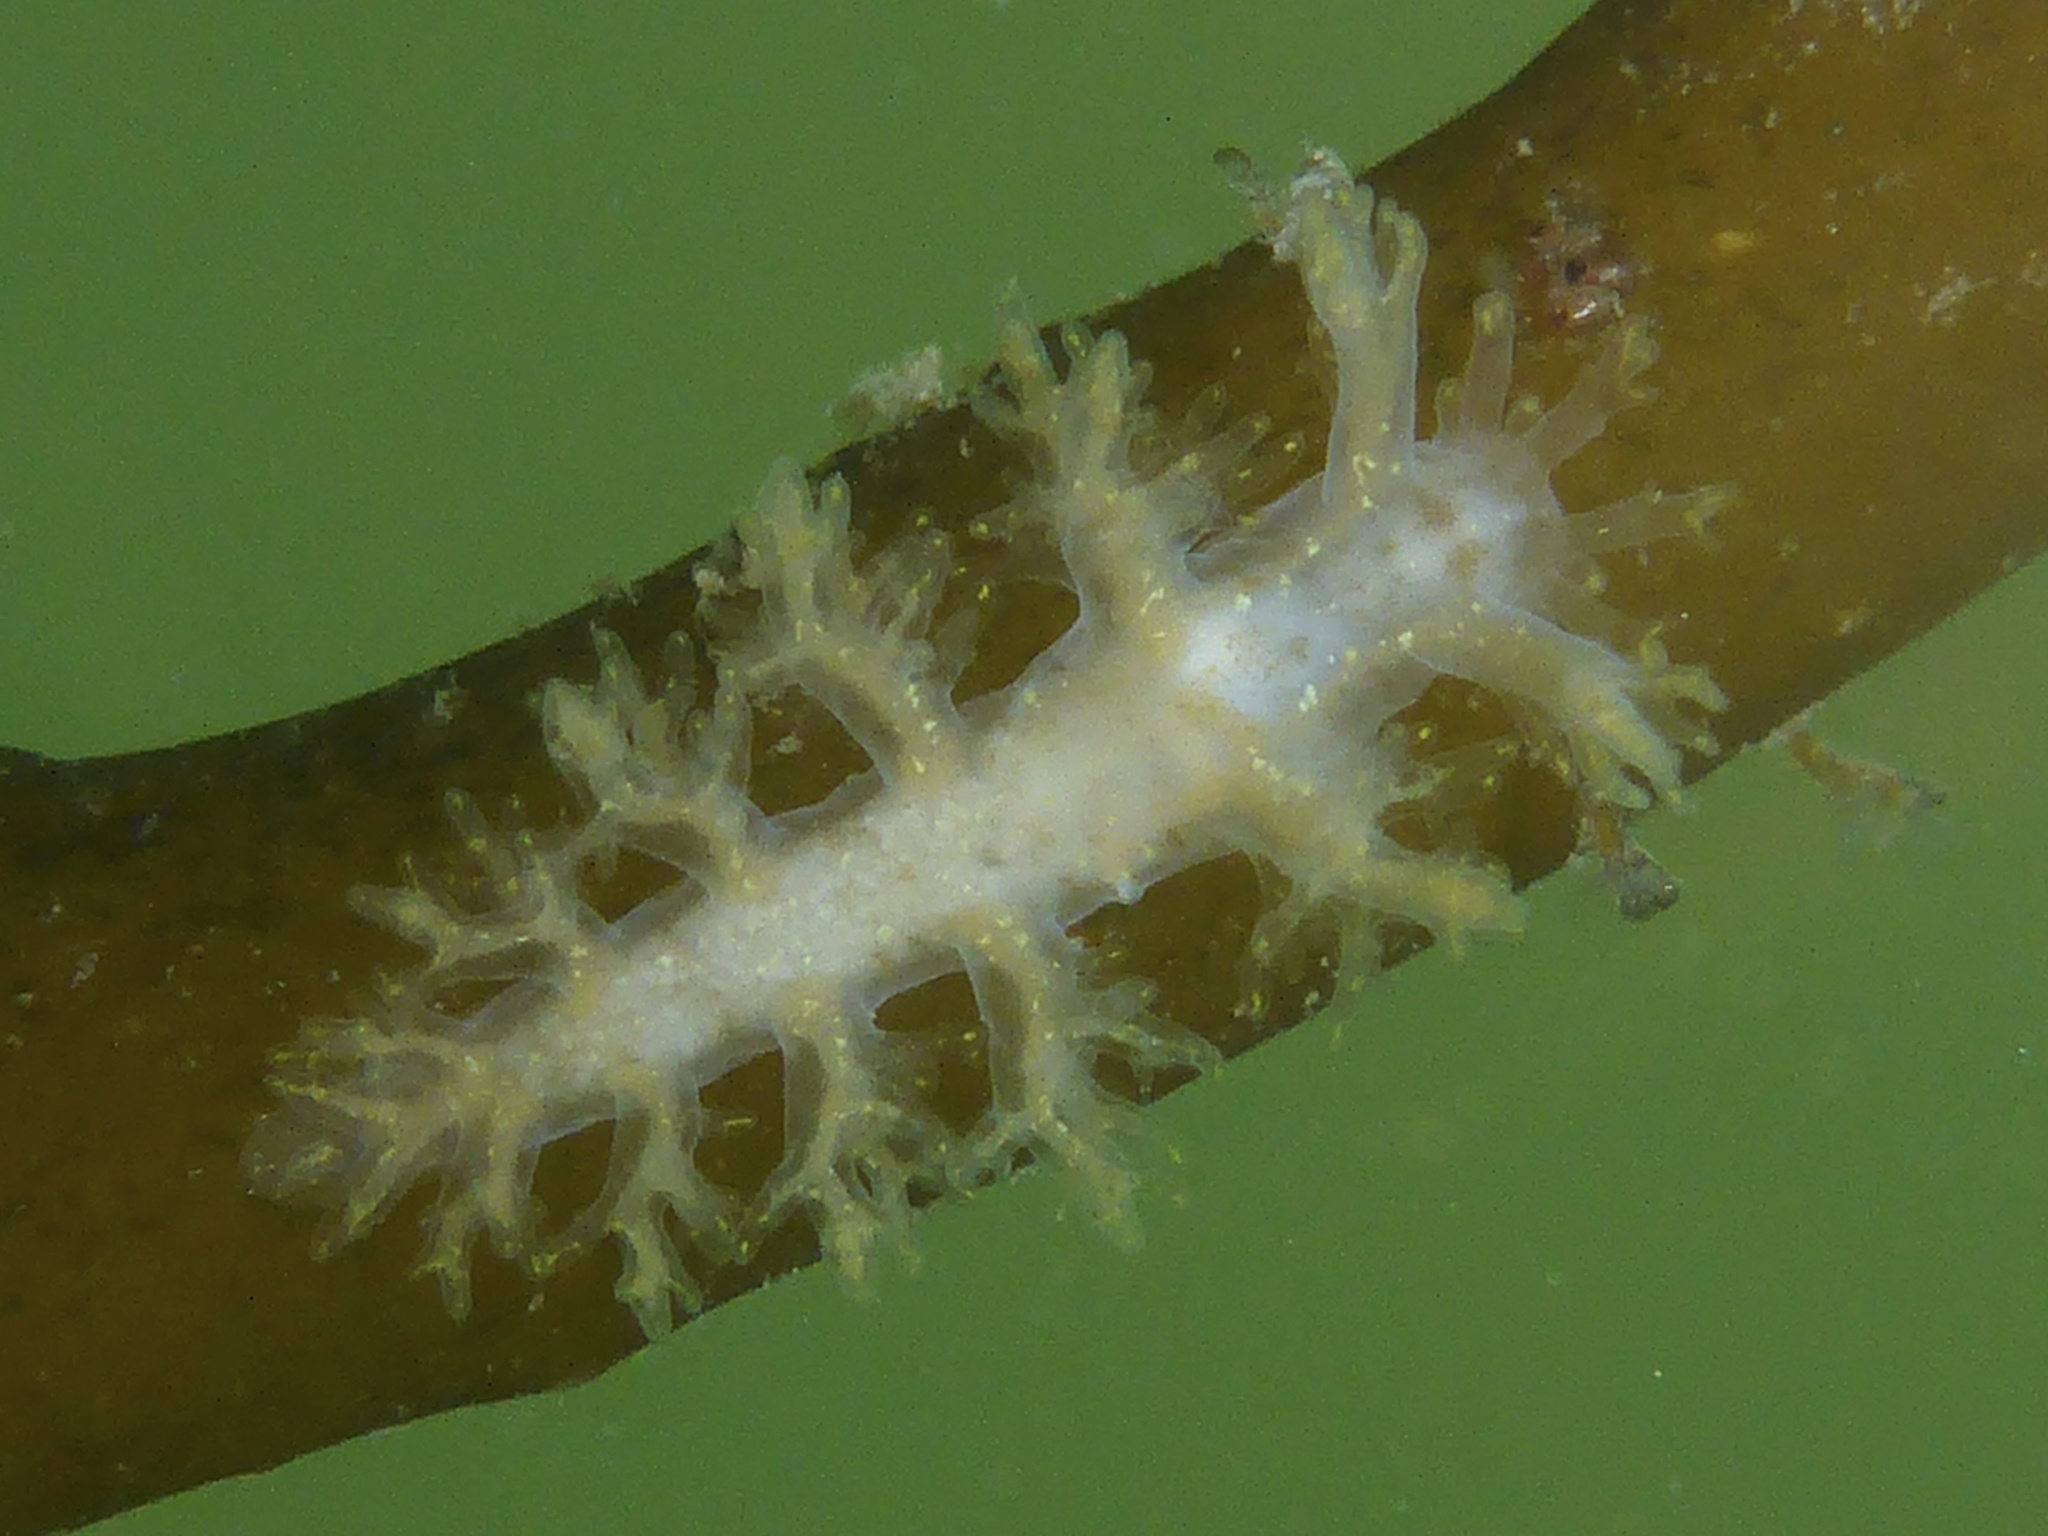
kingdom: Animalia
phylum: Mollusca
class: Gastropoda
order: Nudibranchia
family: Dendronotidae
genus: Dendronotus
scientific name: Dendronotus venustus
